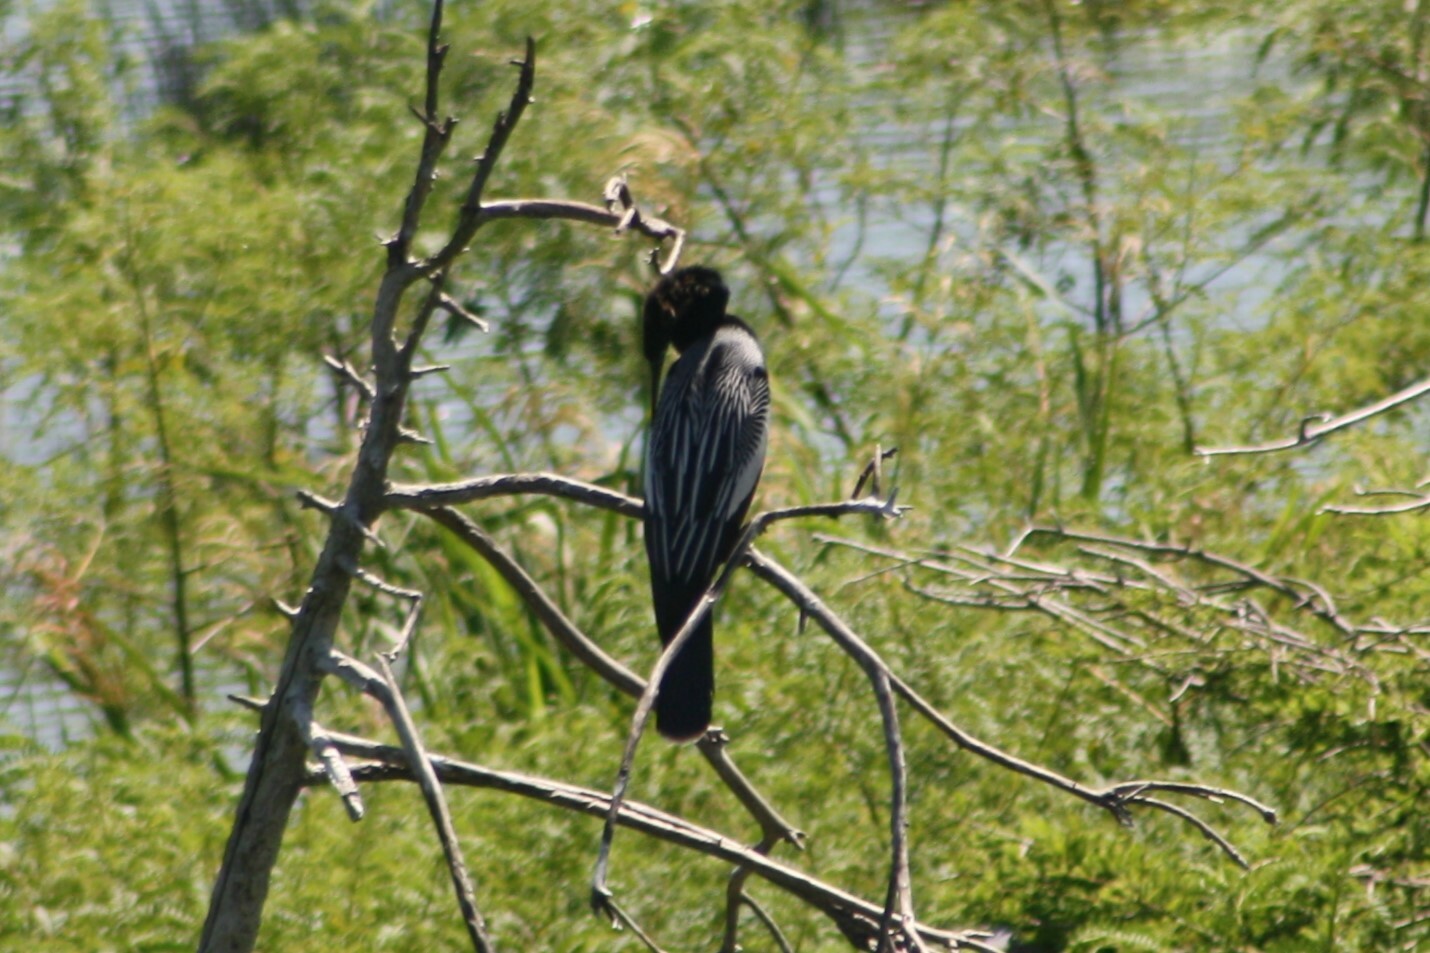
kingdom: Animalia
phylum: Chordata
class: Aves
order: Suliformes
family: Anhingidae
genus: Anhinga
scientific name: Anhinga anhinga
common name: Anhinga
